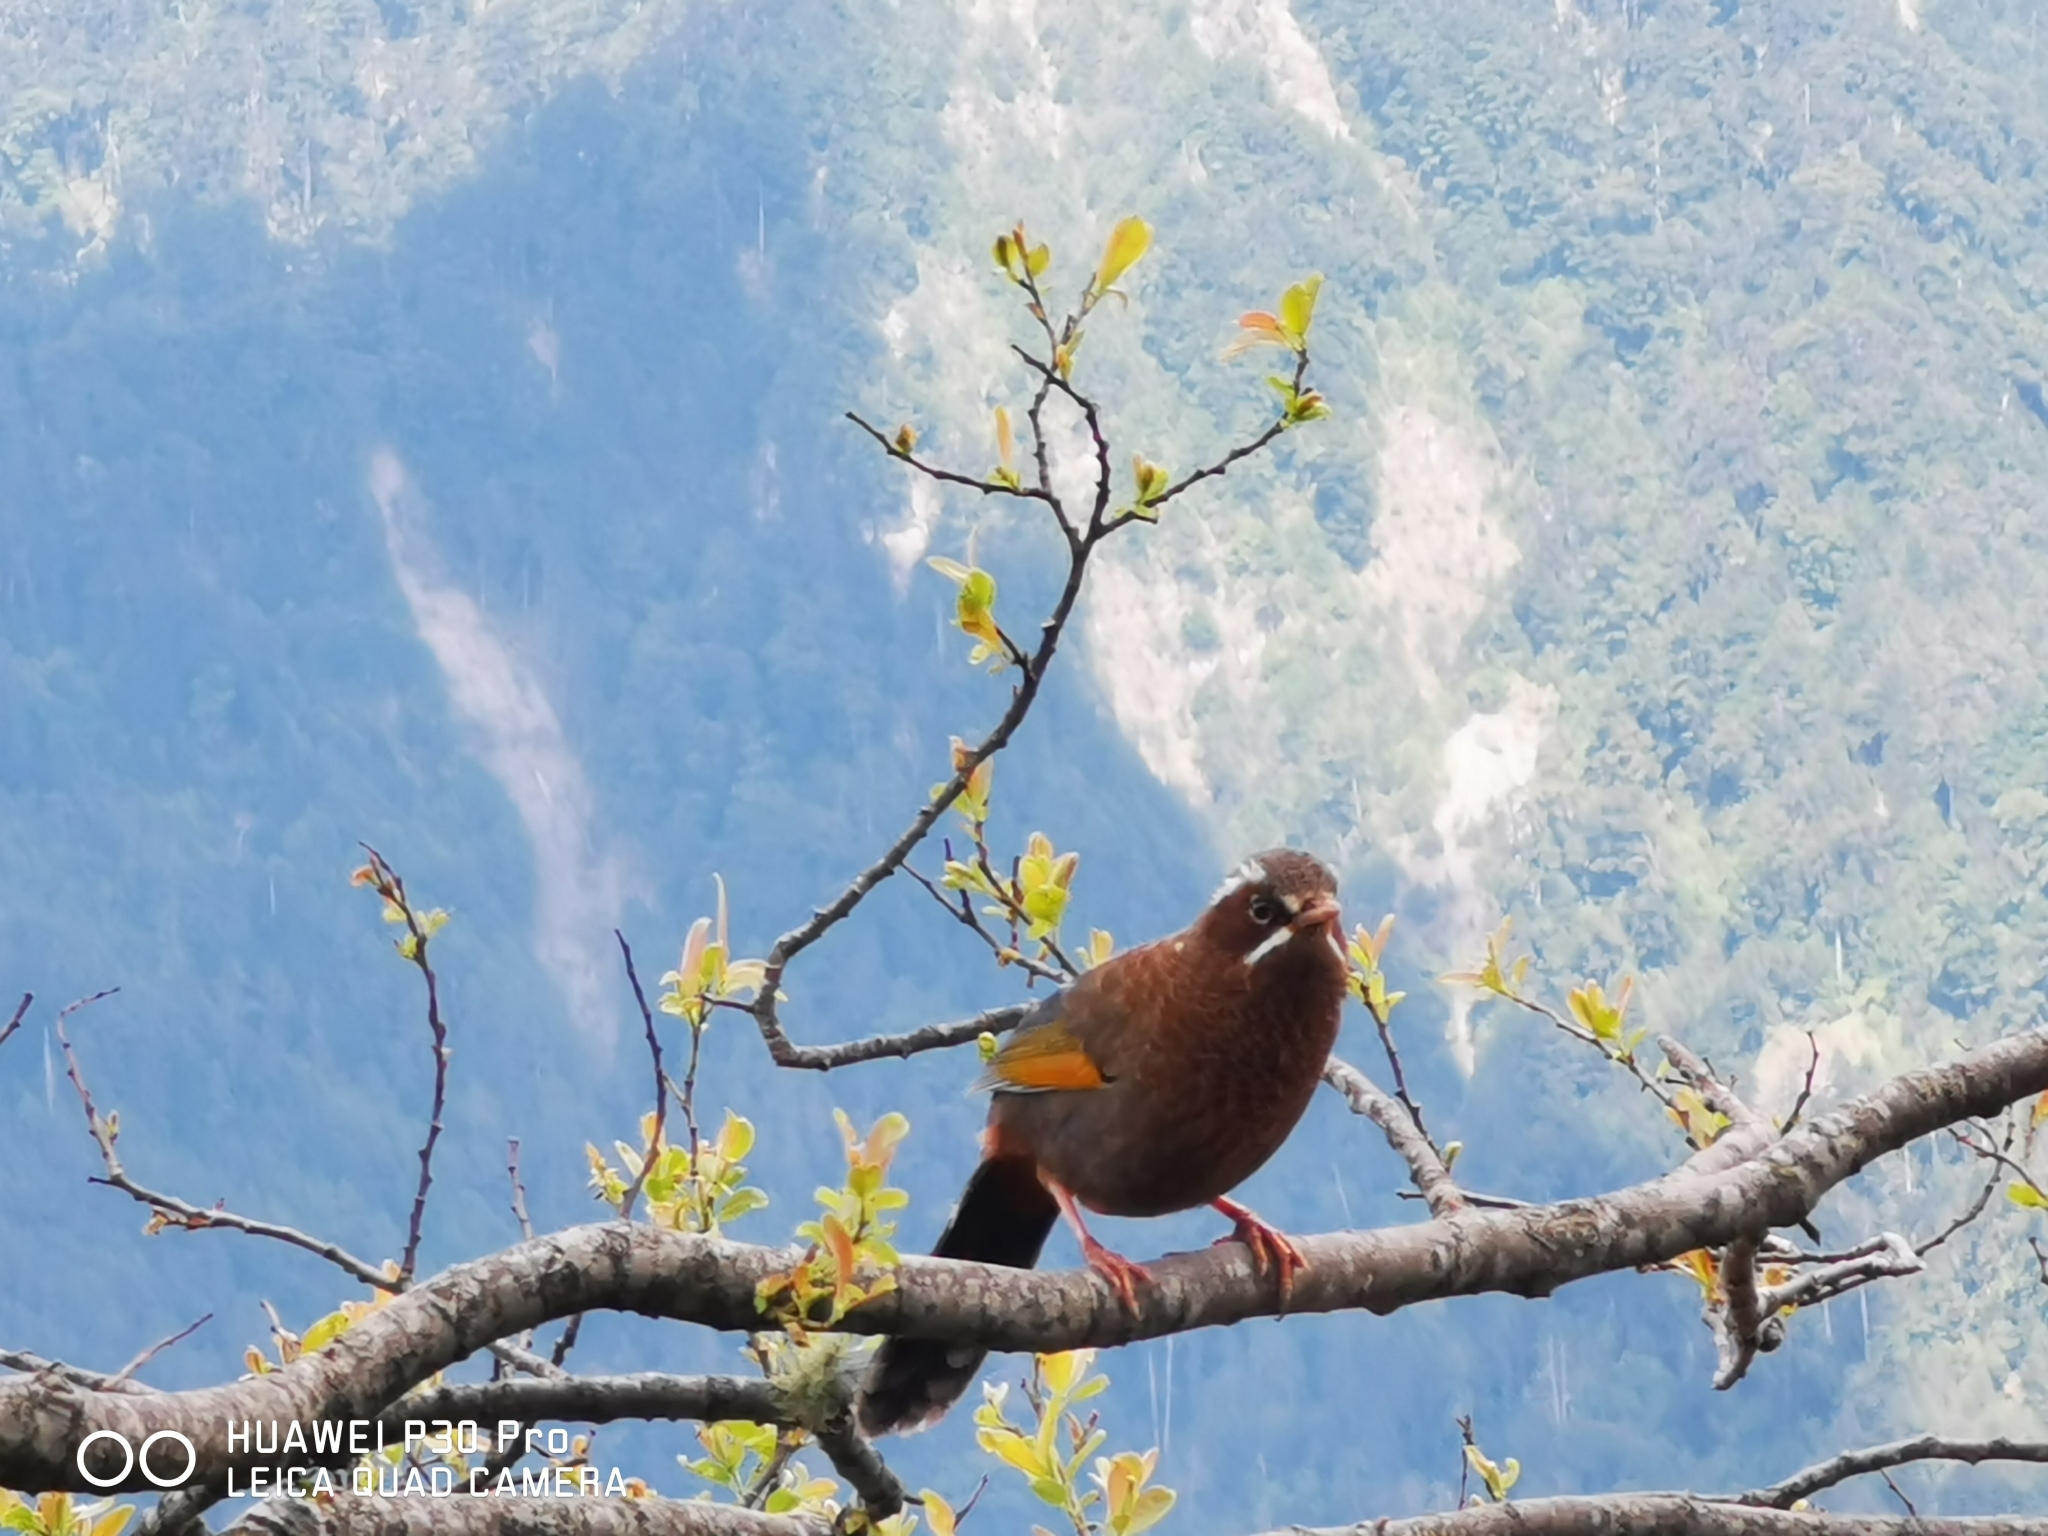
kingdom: Animalia
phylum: Chordata
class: Aves
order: Passeriformes
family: Leiothrichidae
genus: Trochalopteron
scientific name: Trochalopteron morrisonianum
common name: White-whiskered laughingthrush
